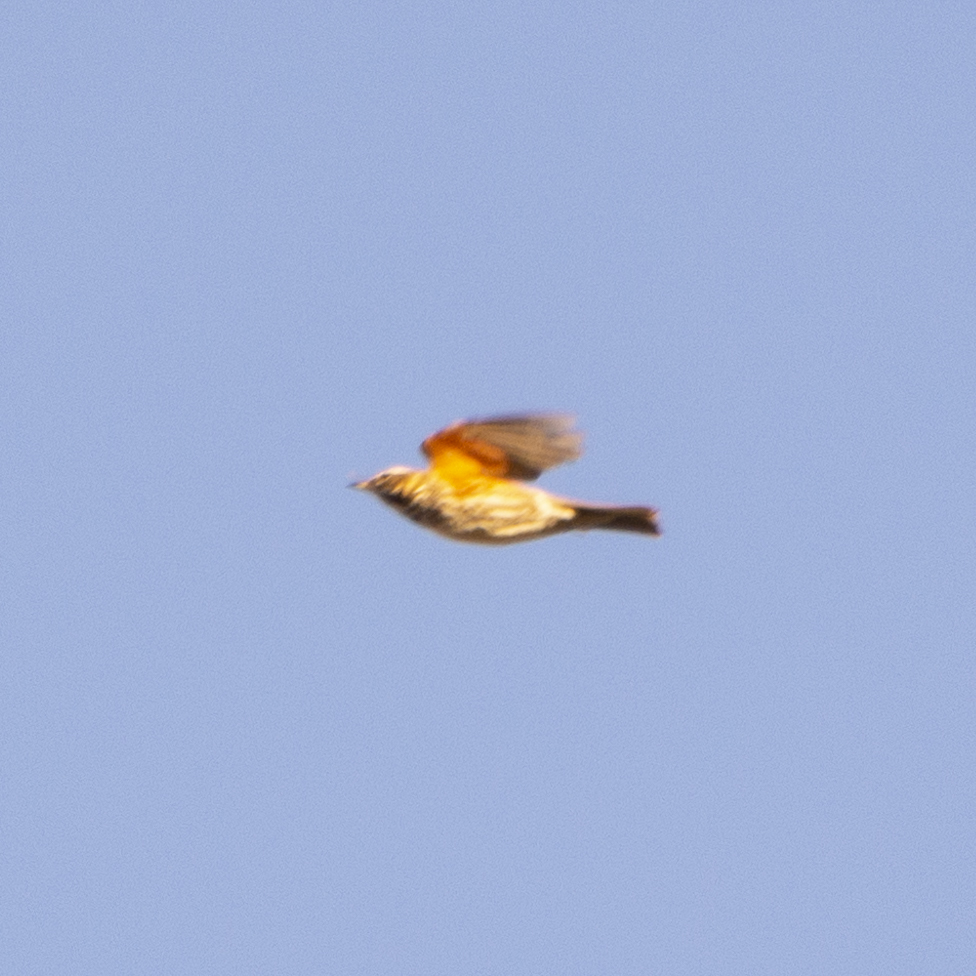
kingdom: Animalia
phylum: Chordata
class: Aves
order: Passeriformes
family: Turdidae
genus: Turdus
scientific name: Turdus iliacus
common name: Redwing
